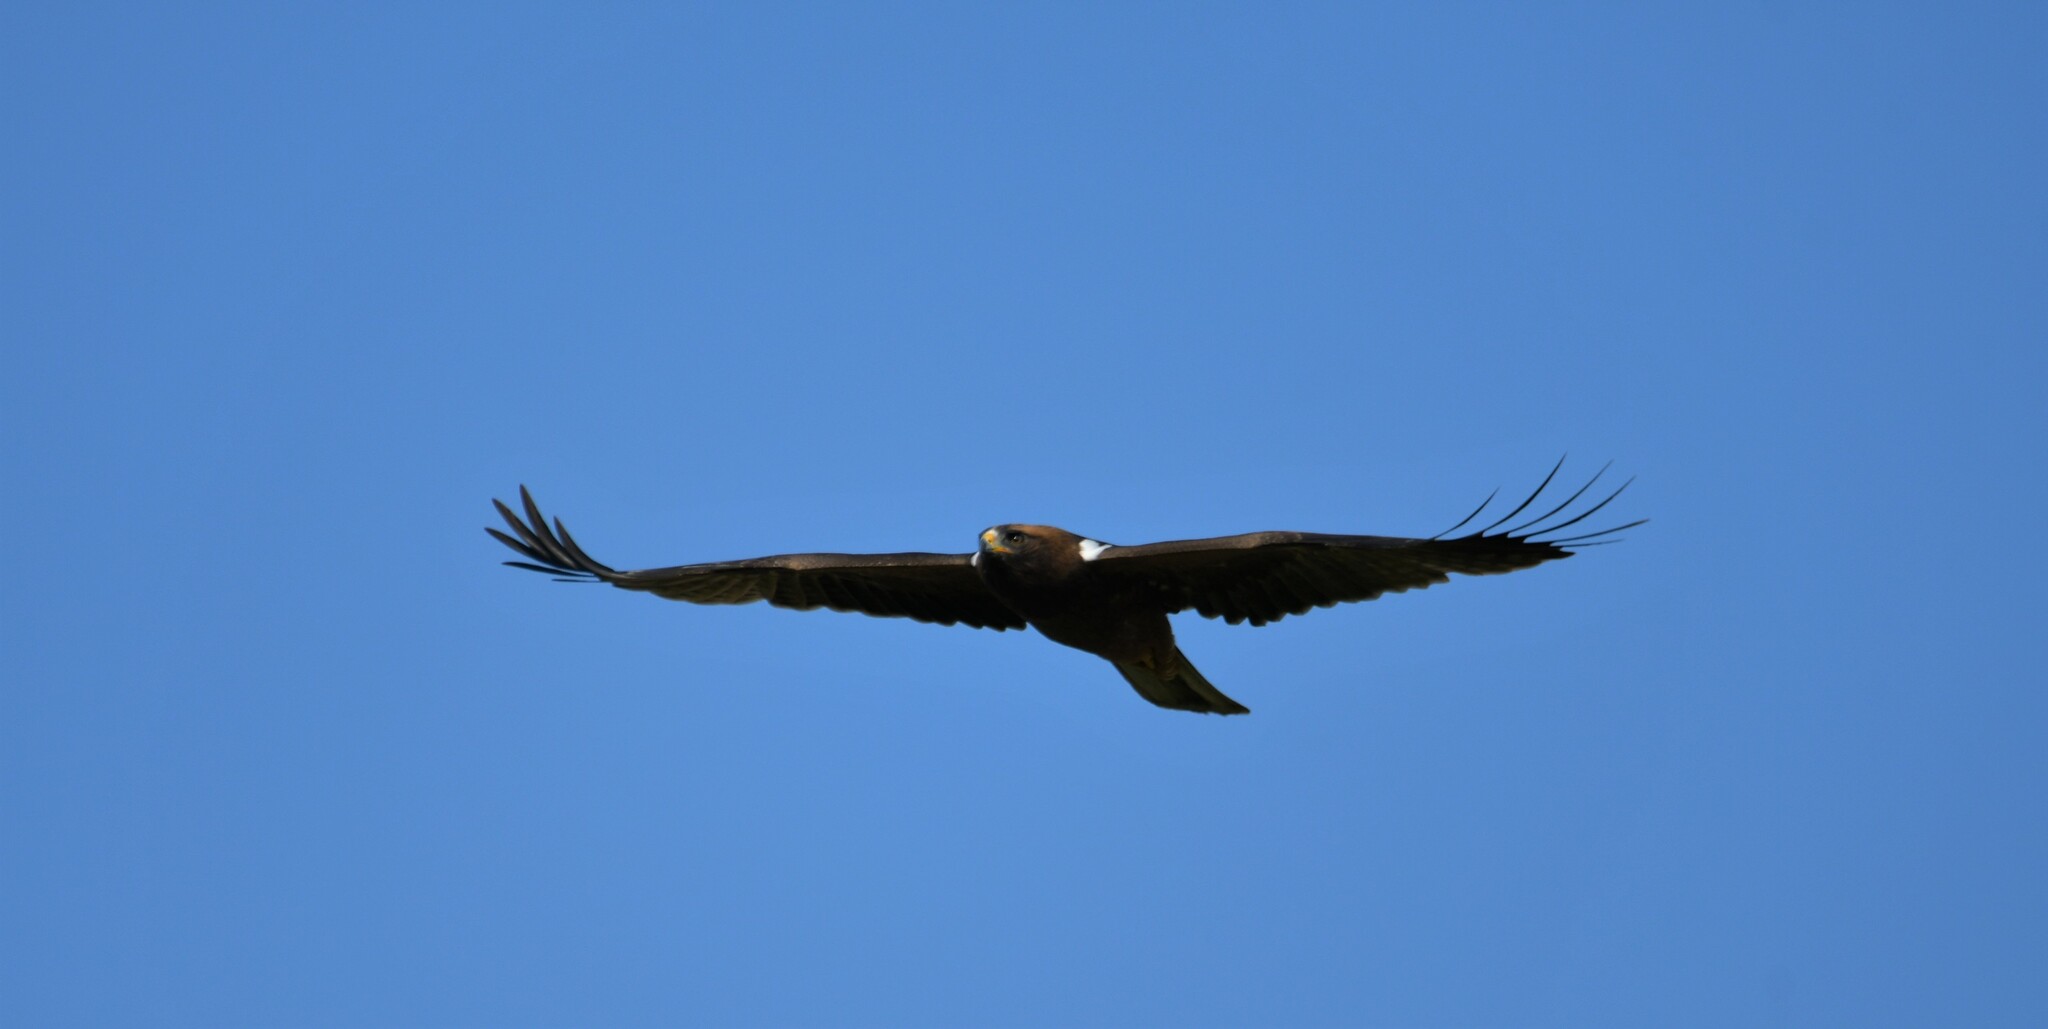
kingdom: Animalia
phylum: Chordata
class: Aves
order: Accipitriformes
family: Accipitridae
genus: Hieraaetus
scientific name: Hieraaetus pennatus
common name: Booted eagle
